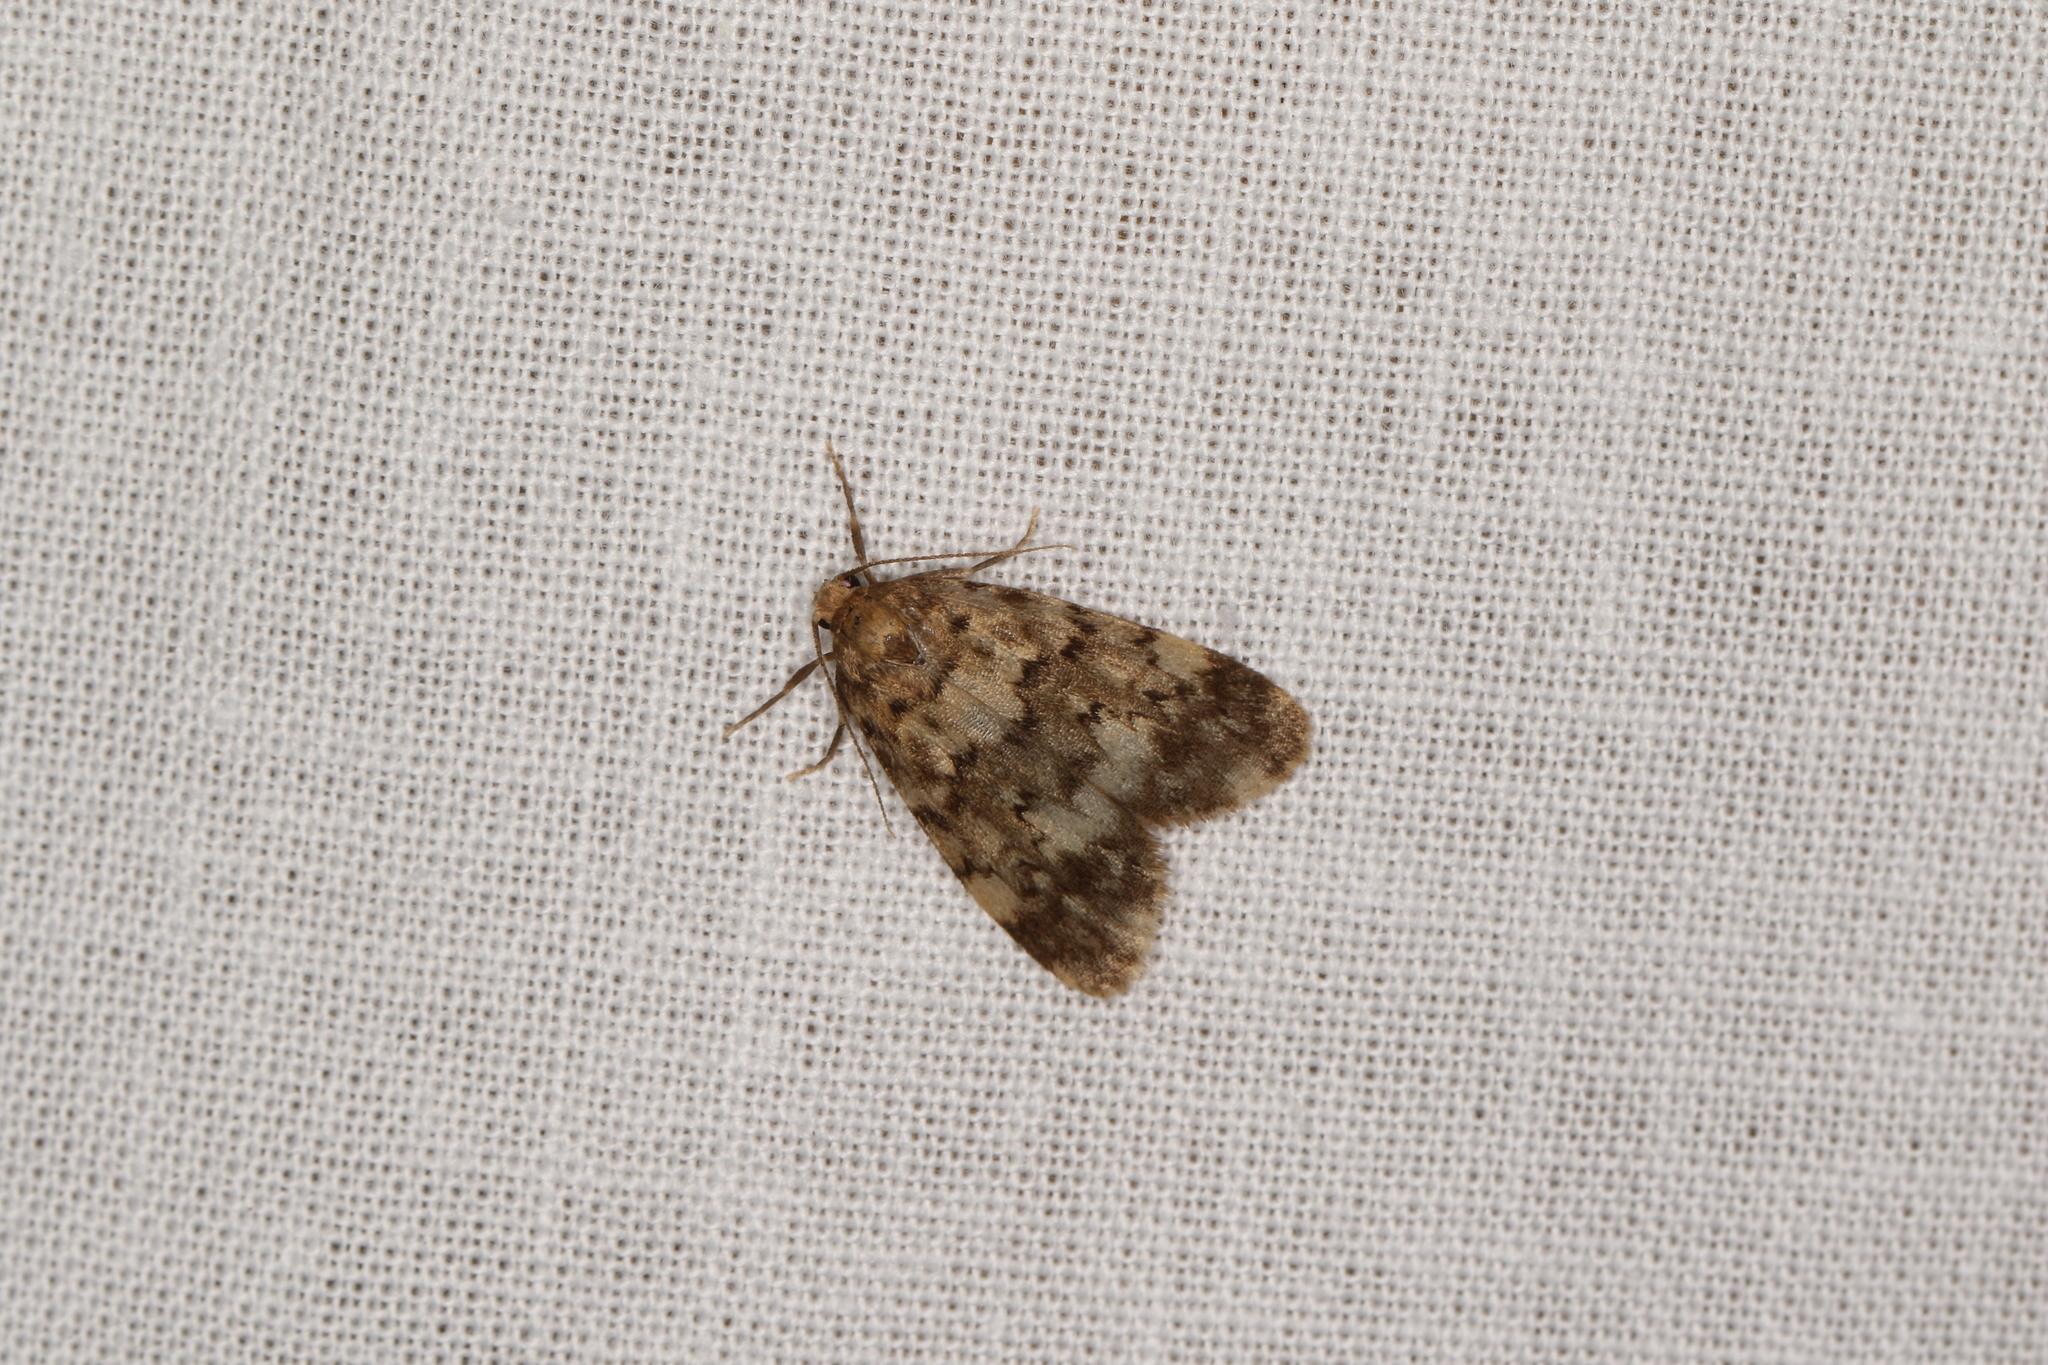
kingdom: Animalia
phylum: Arthropoda
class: Insecta
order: Lepidoptera
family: Erebidae
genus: Stenarcha
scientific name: Stenarcha stenopa
